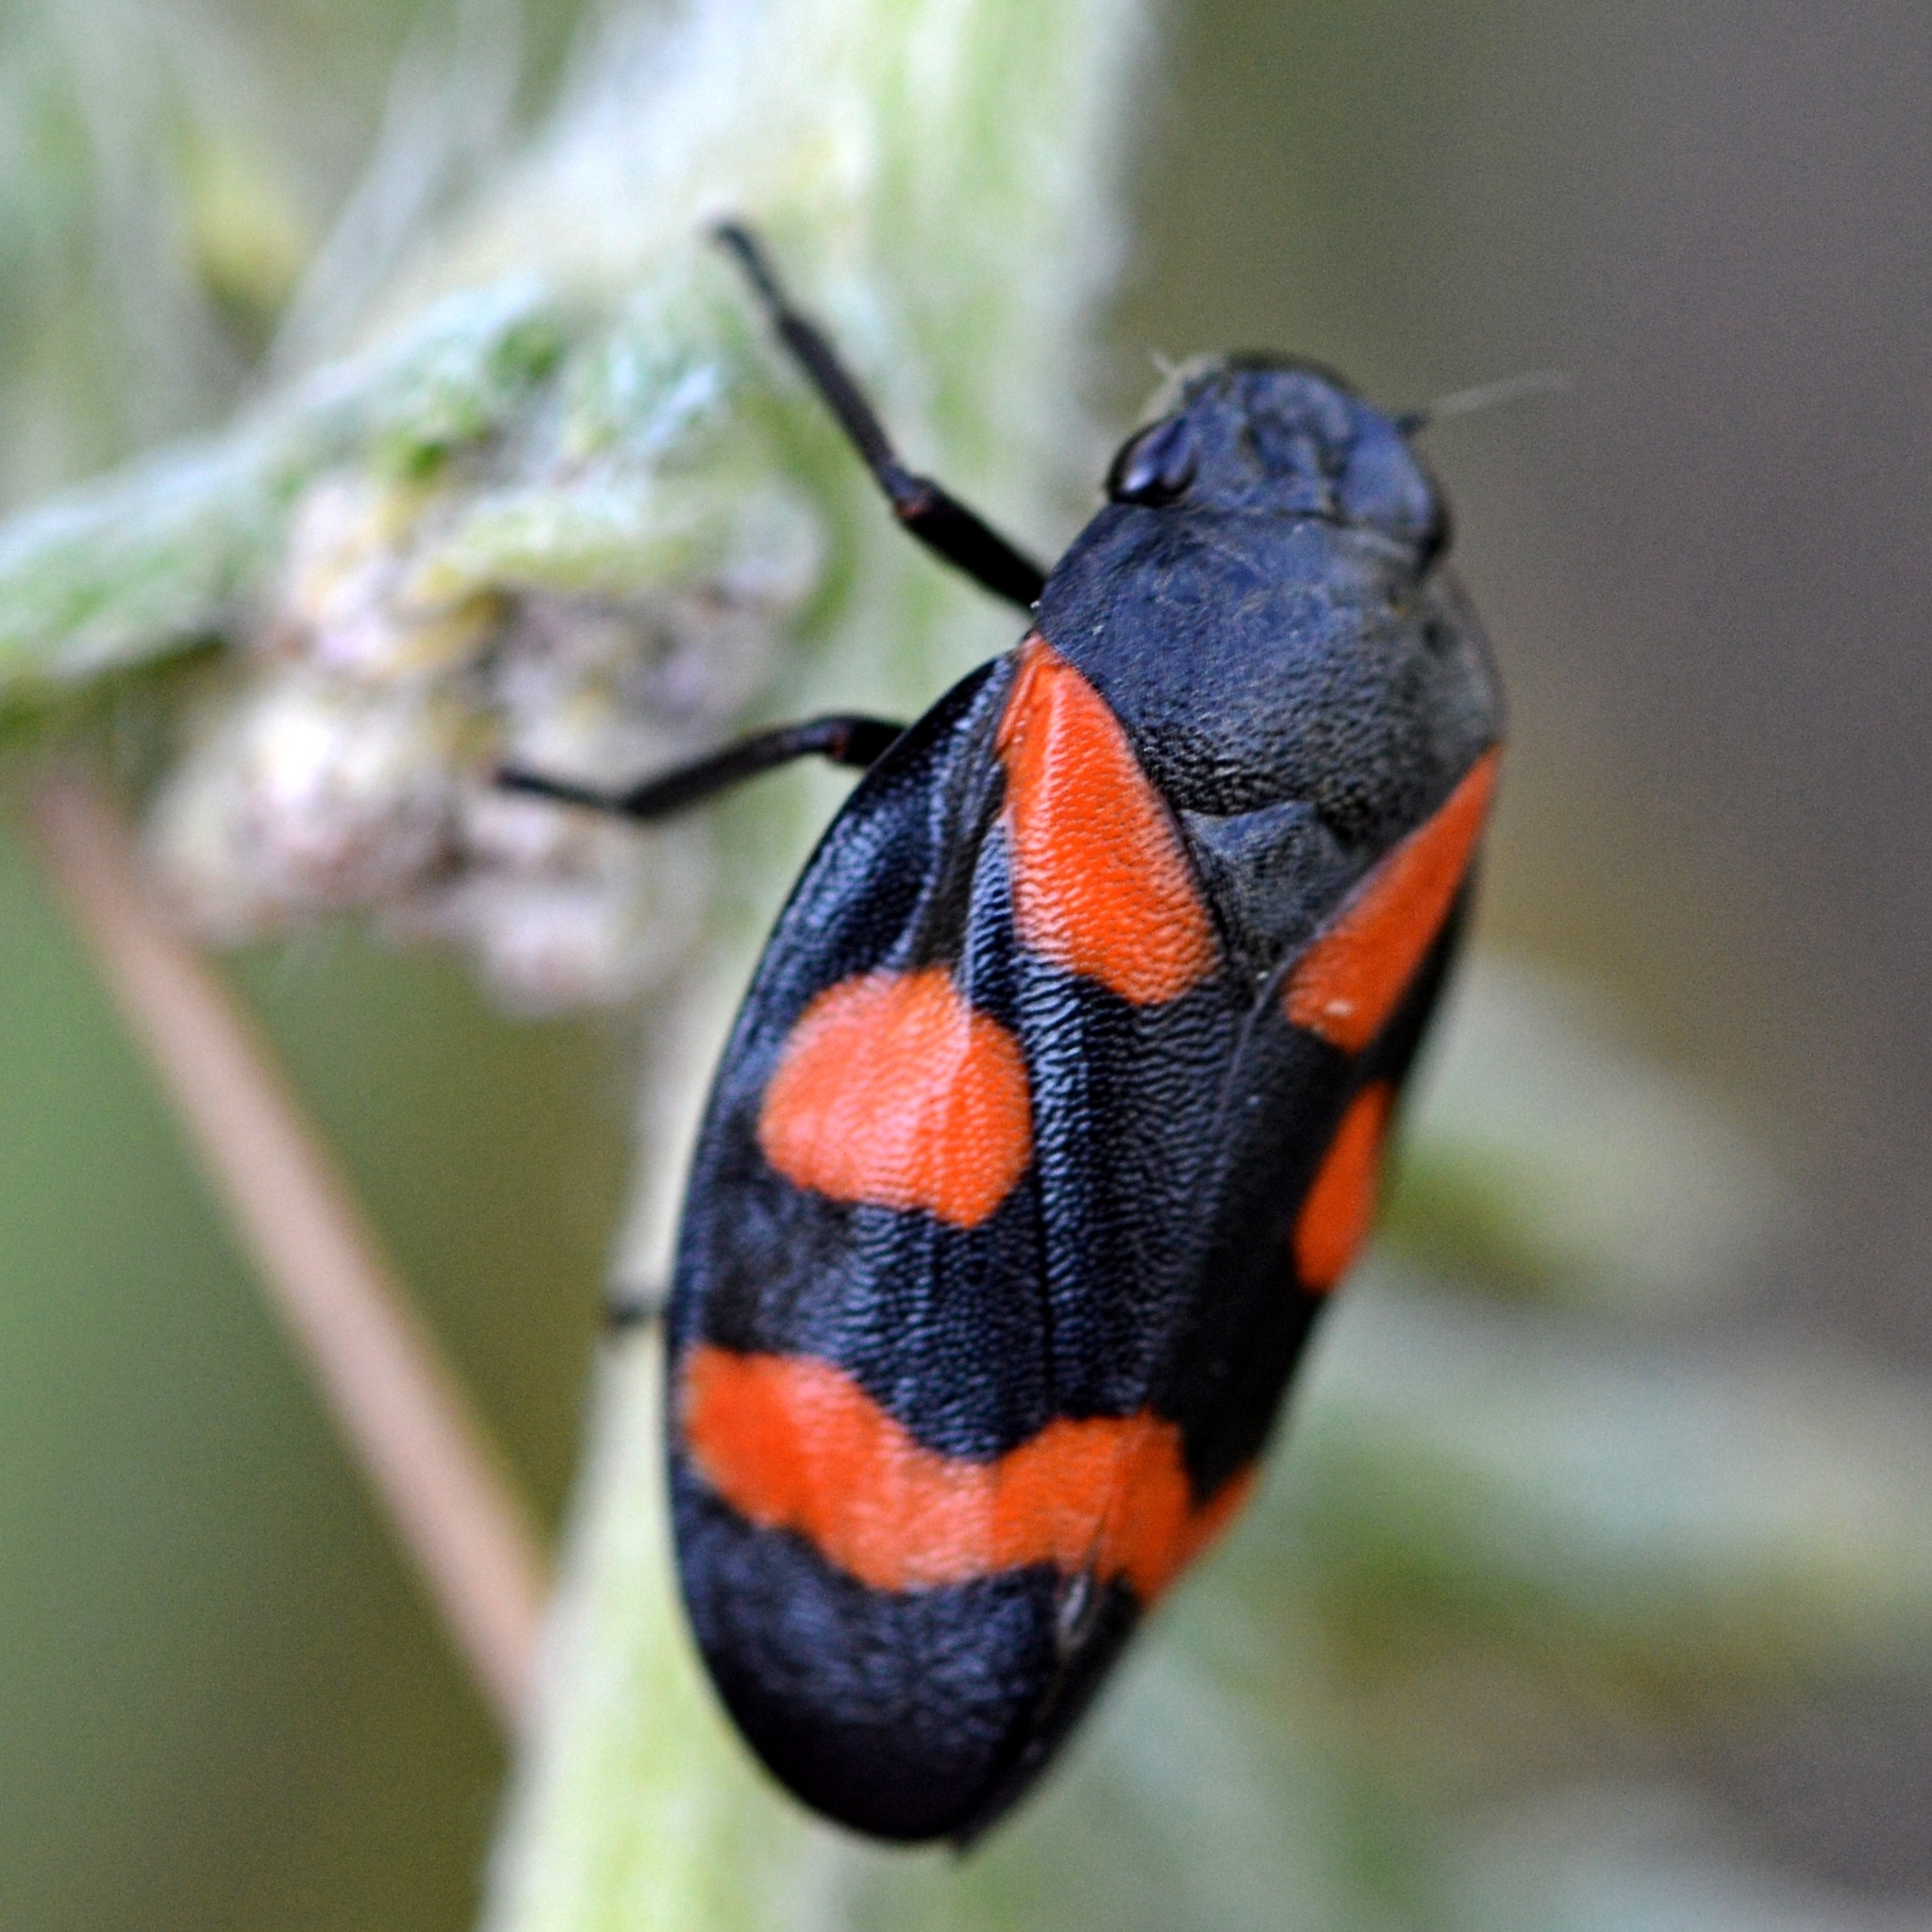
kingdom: Animalia
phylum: Arthropoda
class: Insecta
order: Hemiptera
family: Cercopidae
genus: Cercopis
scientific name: Cercopis sanguinolenta
